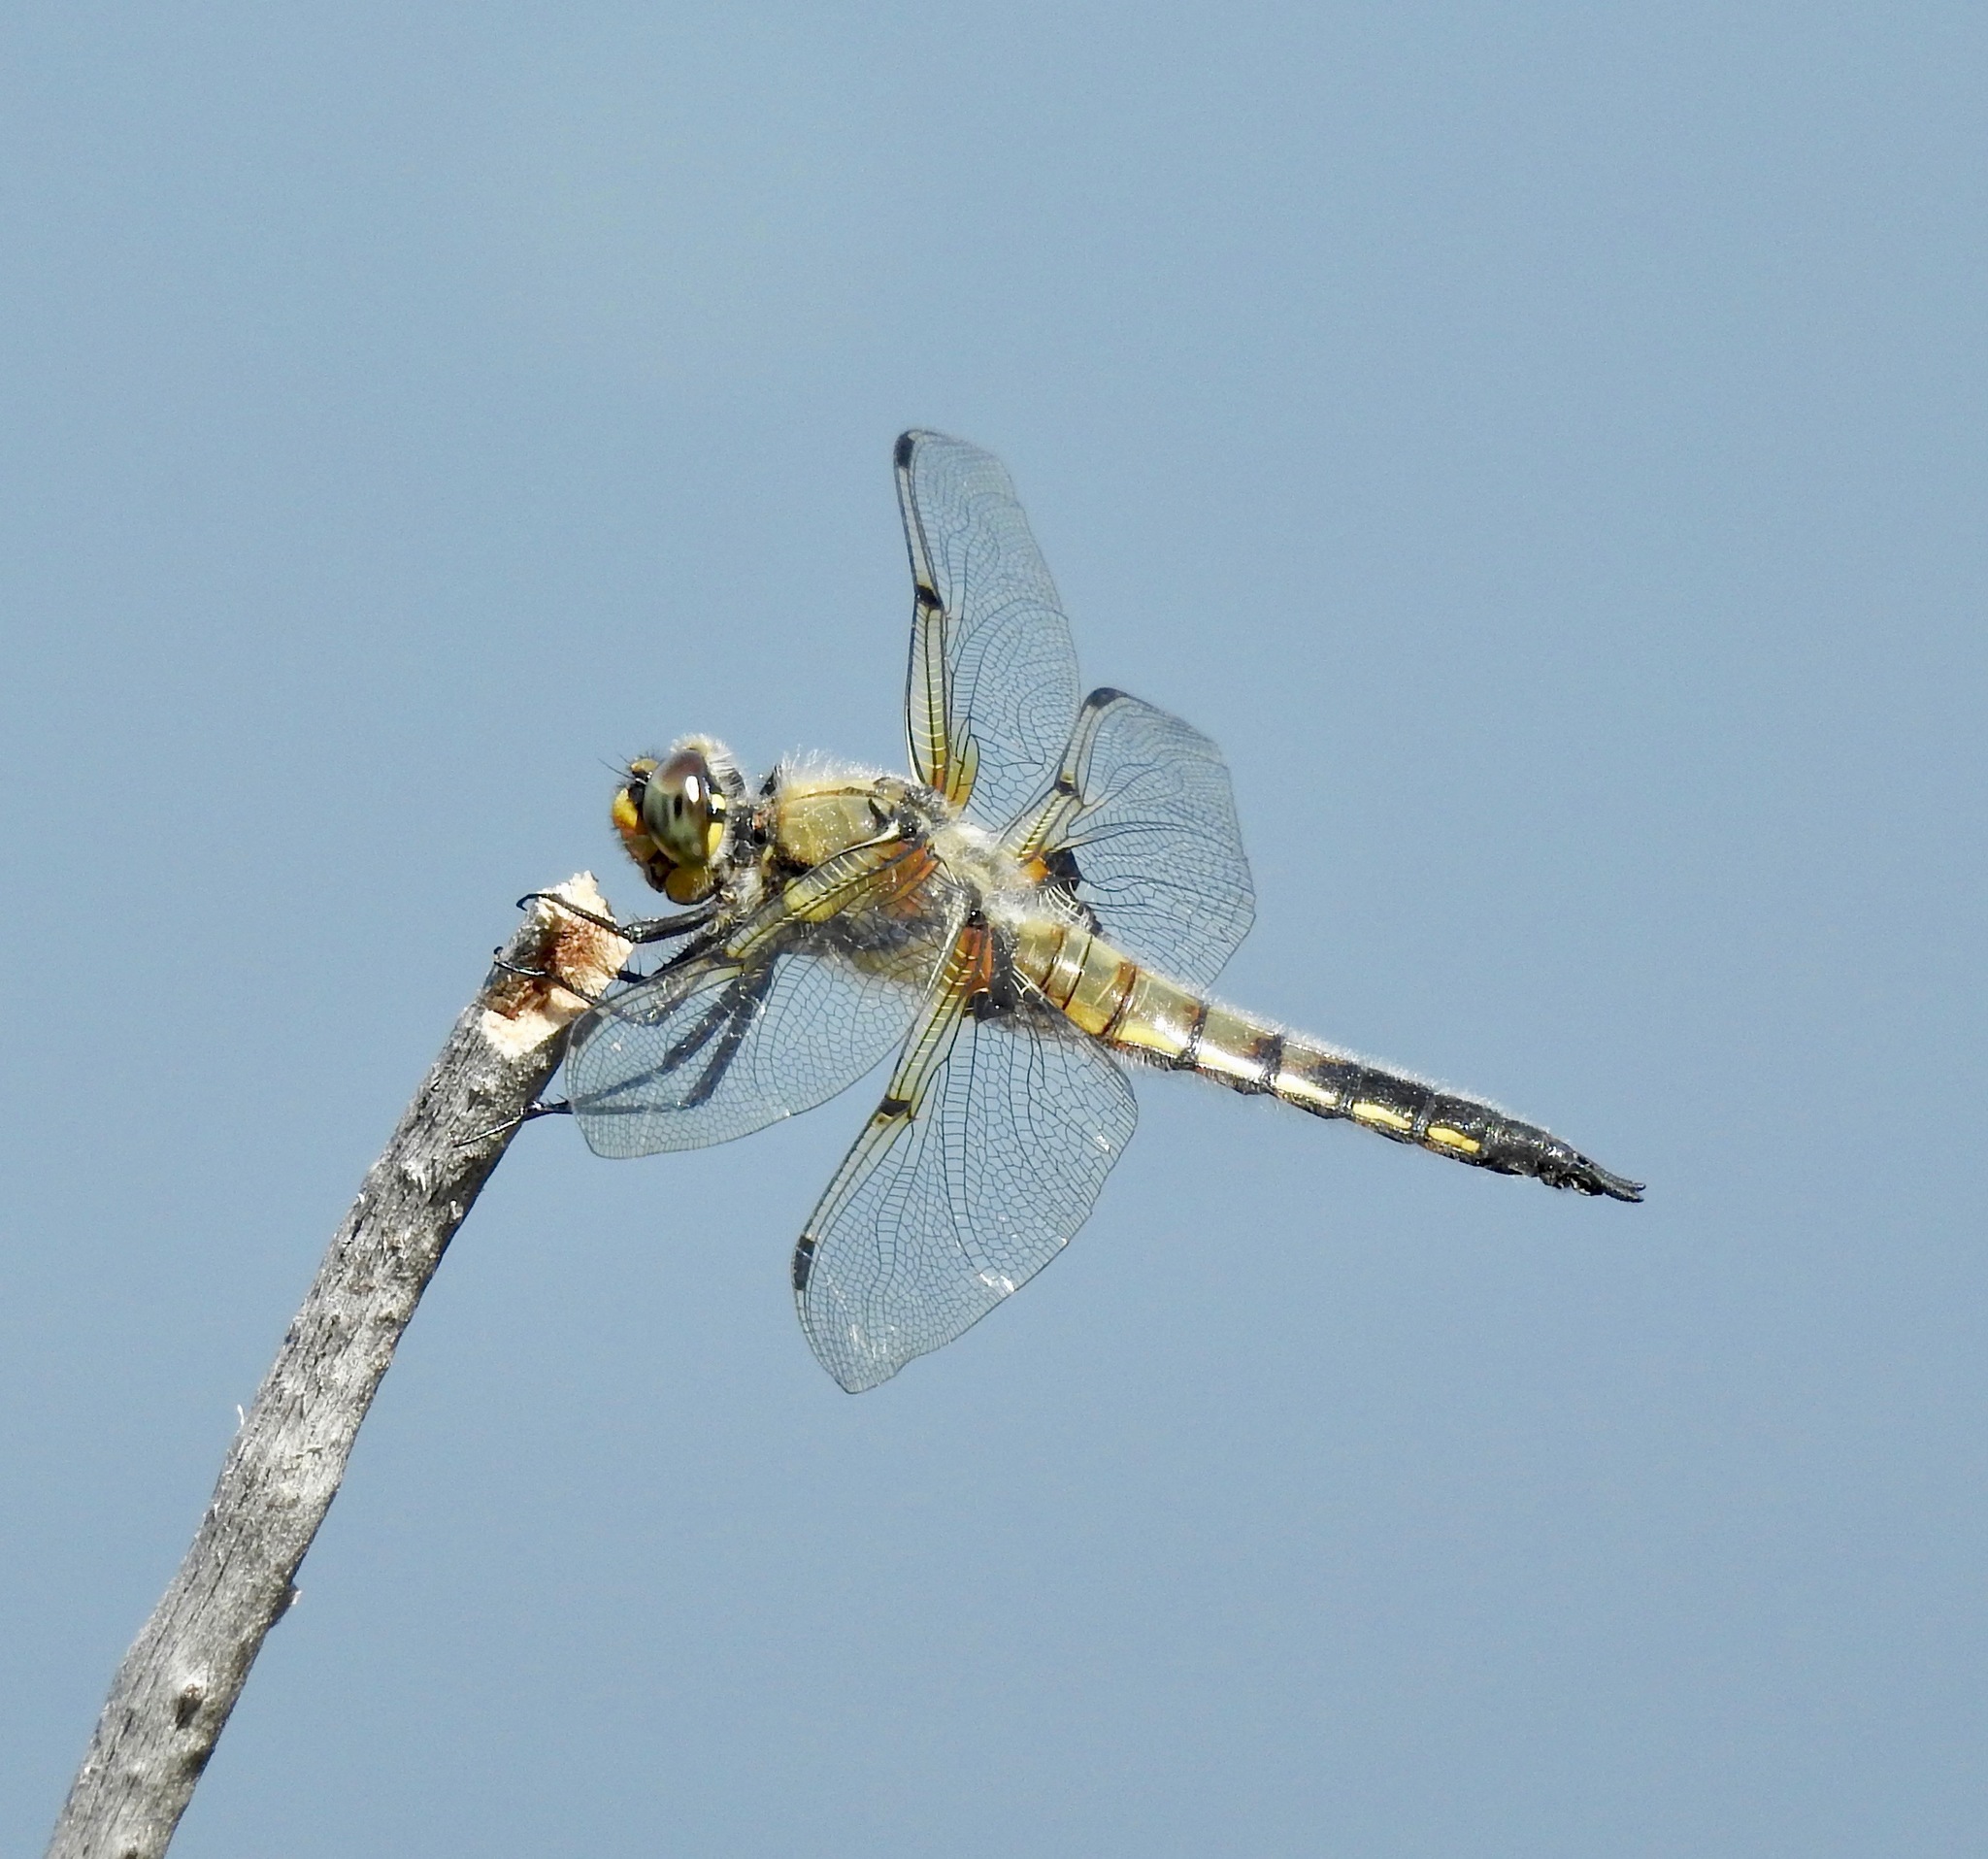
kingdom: Animalia
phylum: Arthropoda
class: Insecta
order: Odonata
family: Libellulidae
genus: Libellula
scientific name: Libellula quadrimaculata
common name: Four-spotted chaser
